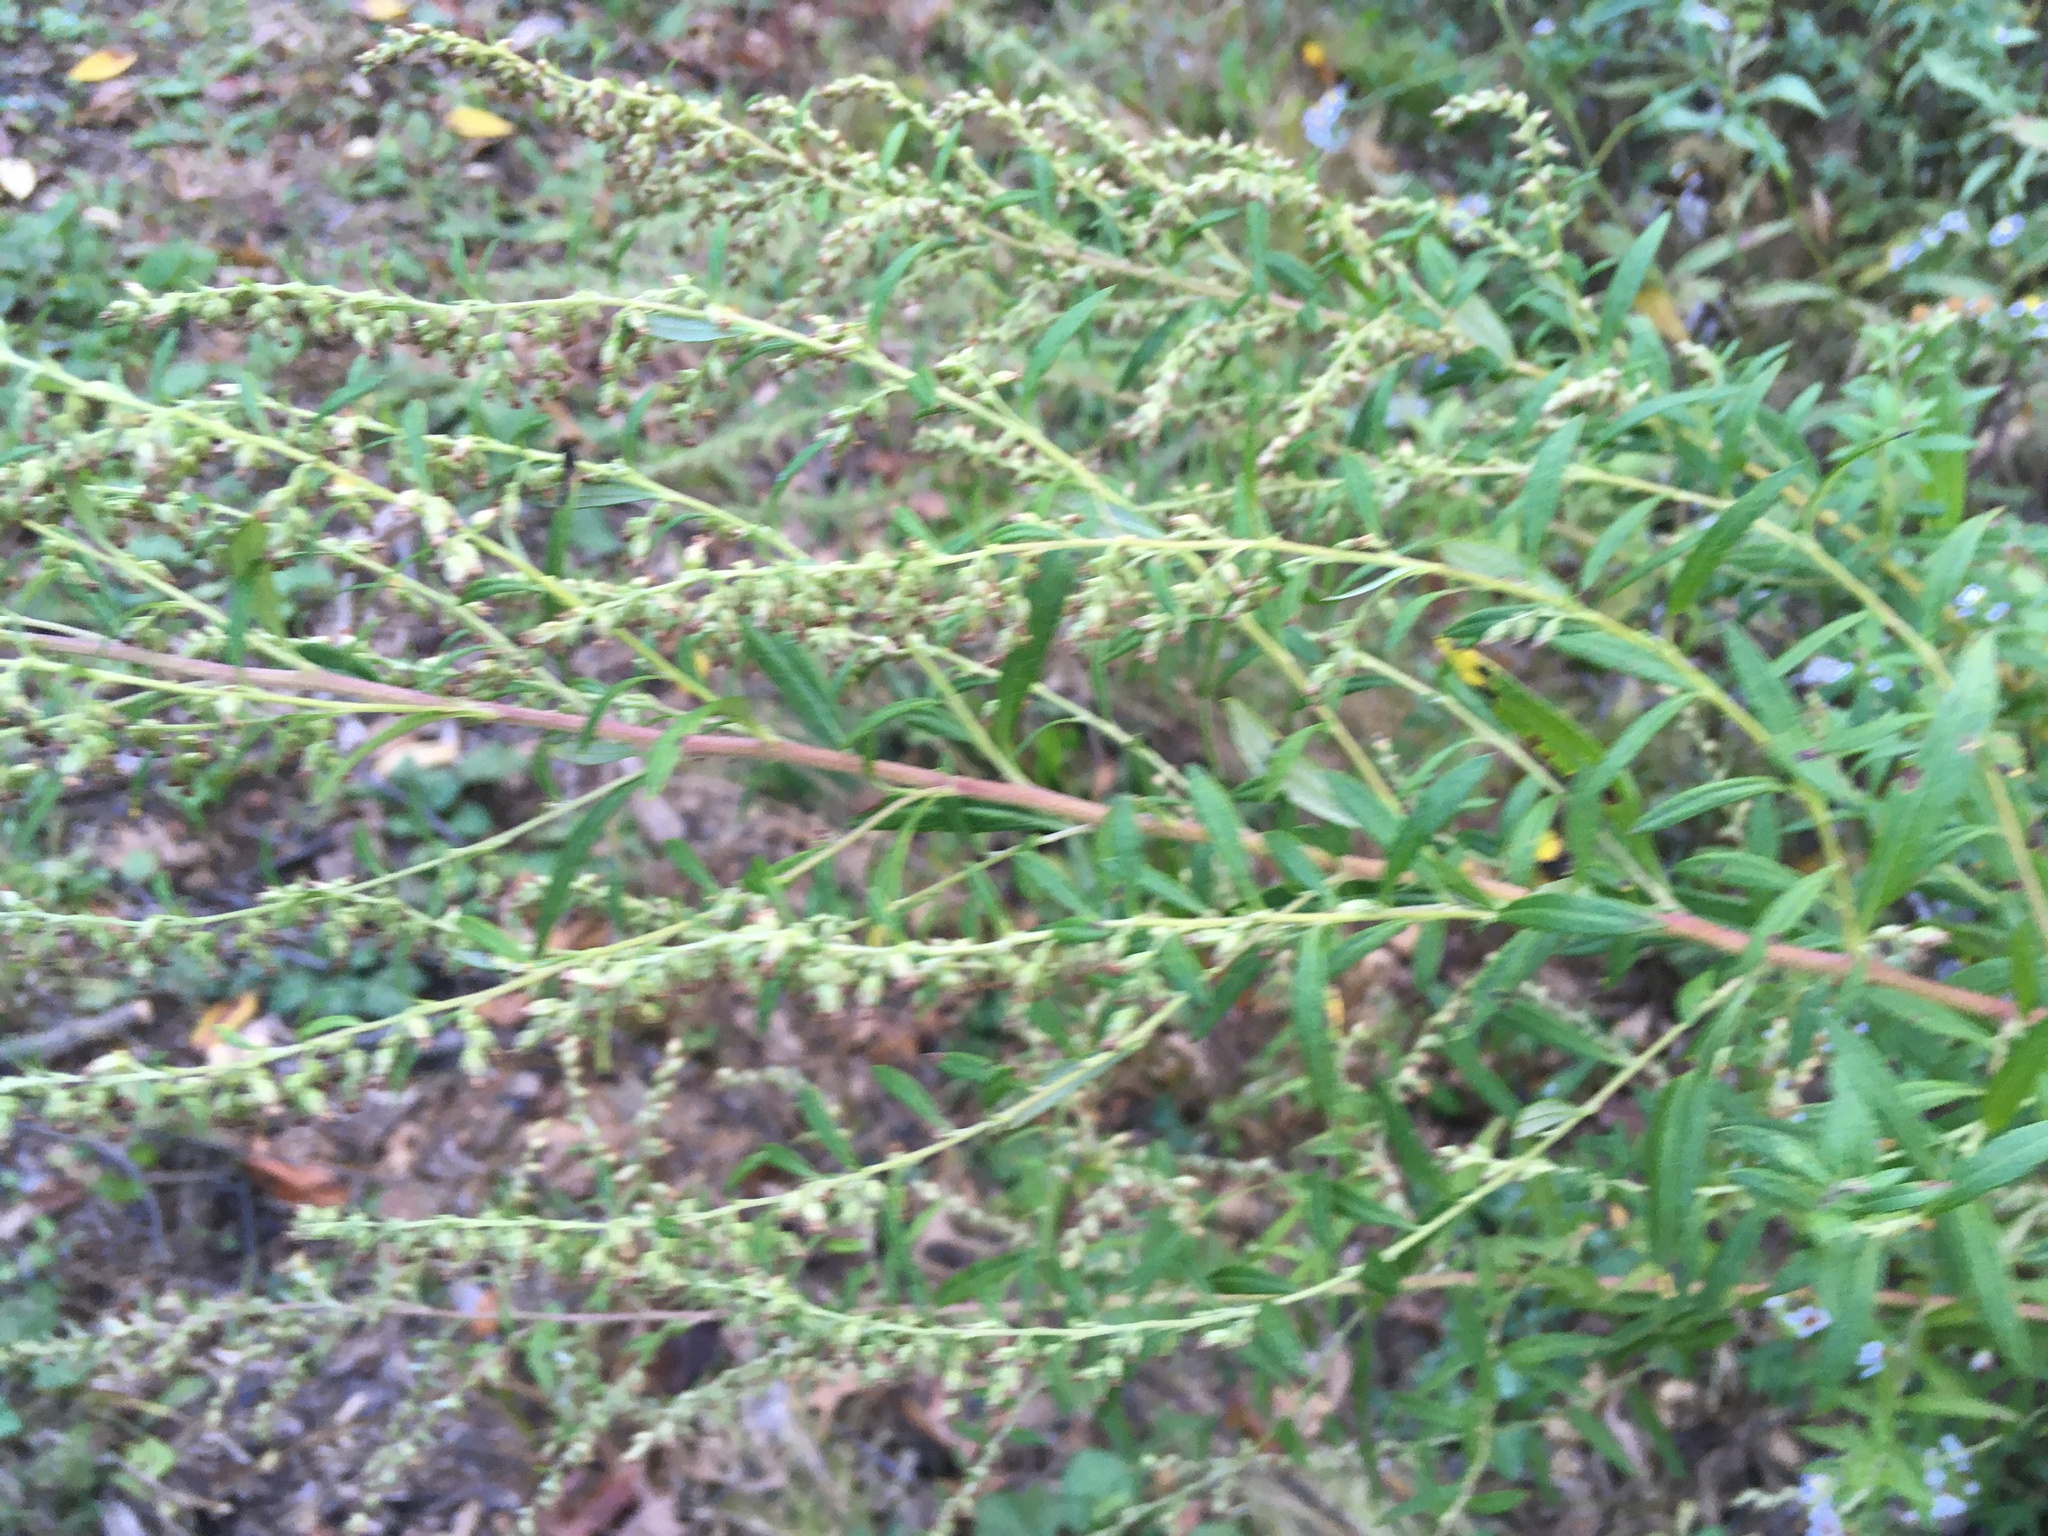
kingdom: Plantae
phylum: Tracheophyta
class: Magnoliopsida
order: Asterales
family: Asteraceae
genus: Artemisia
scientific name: Artemisia vulgaris
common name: Mugwort
